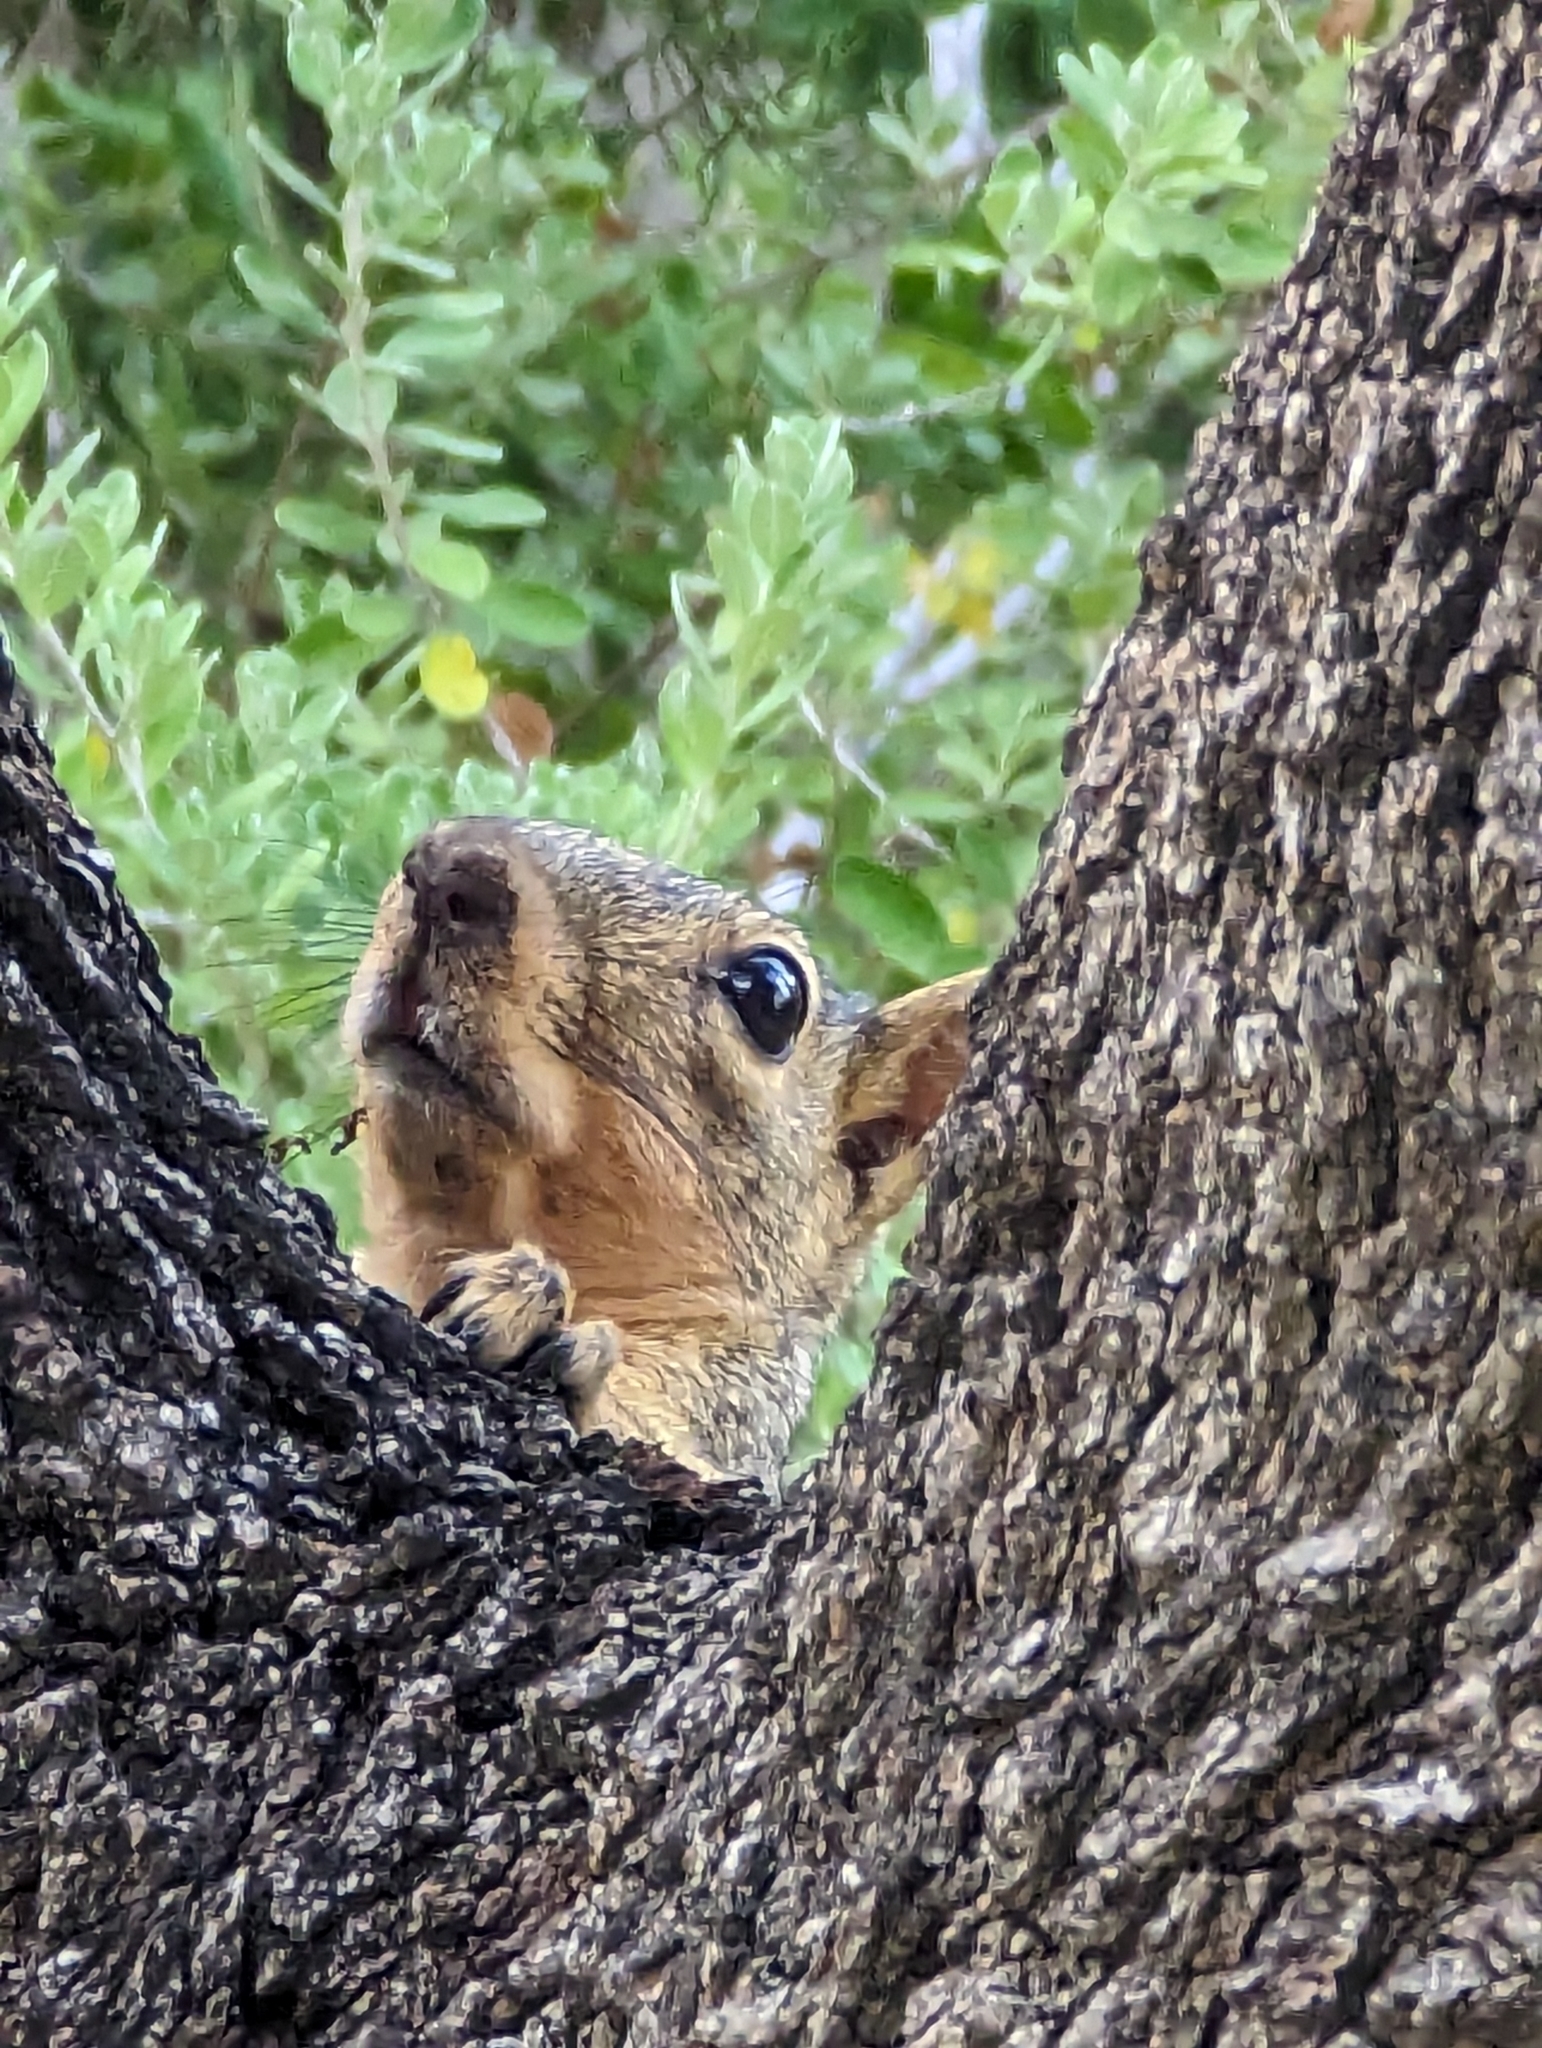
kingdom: Animalia
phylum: Chordata
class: Mammalia
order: Rodentia
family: Sciuridae
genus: Sciurus
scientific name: Sciurus niger
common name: Fox squirrel
